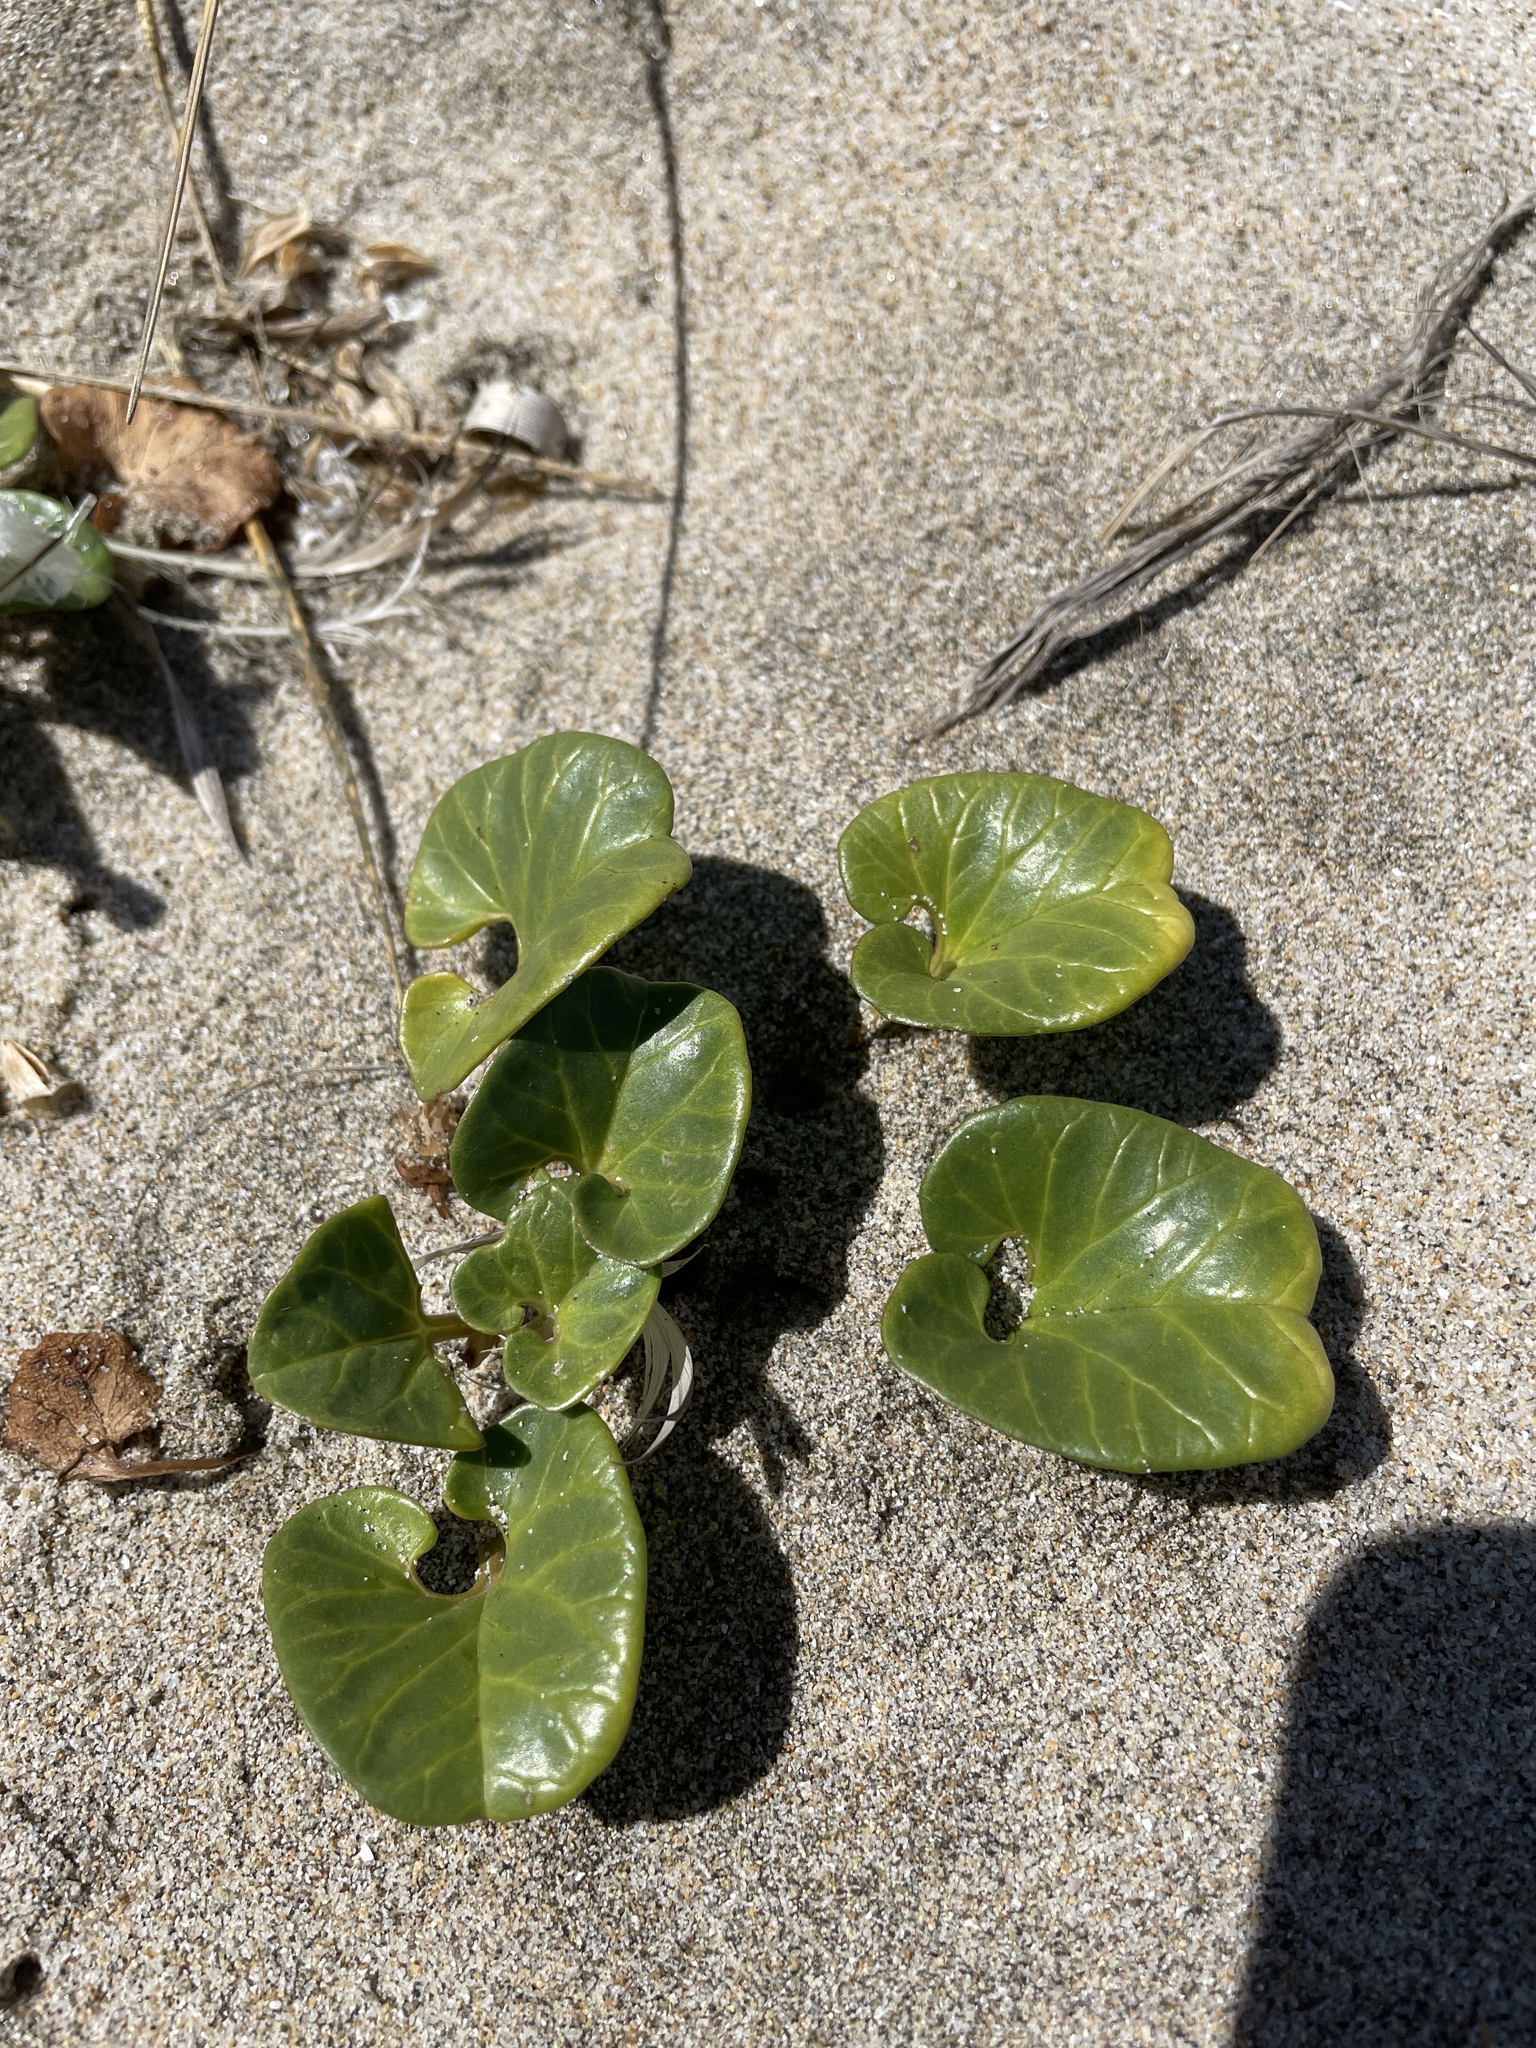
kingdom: Plantae
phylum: Tracheophyta
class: Magnoliopsida
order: Solanales
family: Convolvulaceae
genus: Calystegia
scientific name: Calystegia soldanella
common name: Sea bindweed
